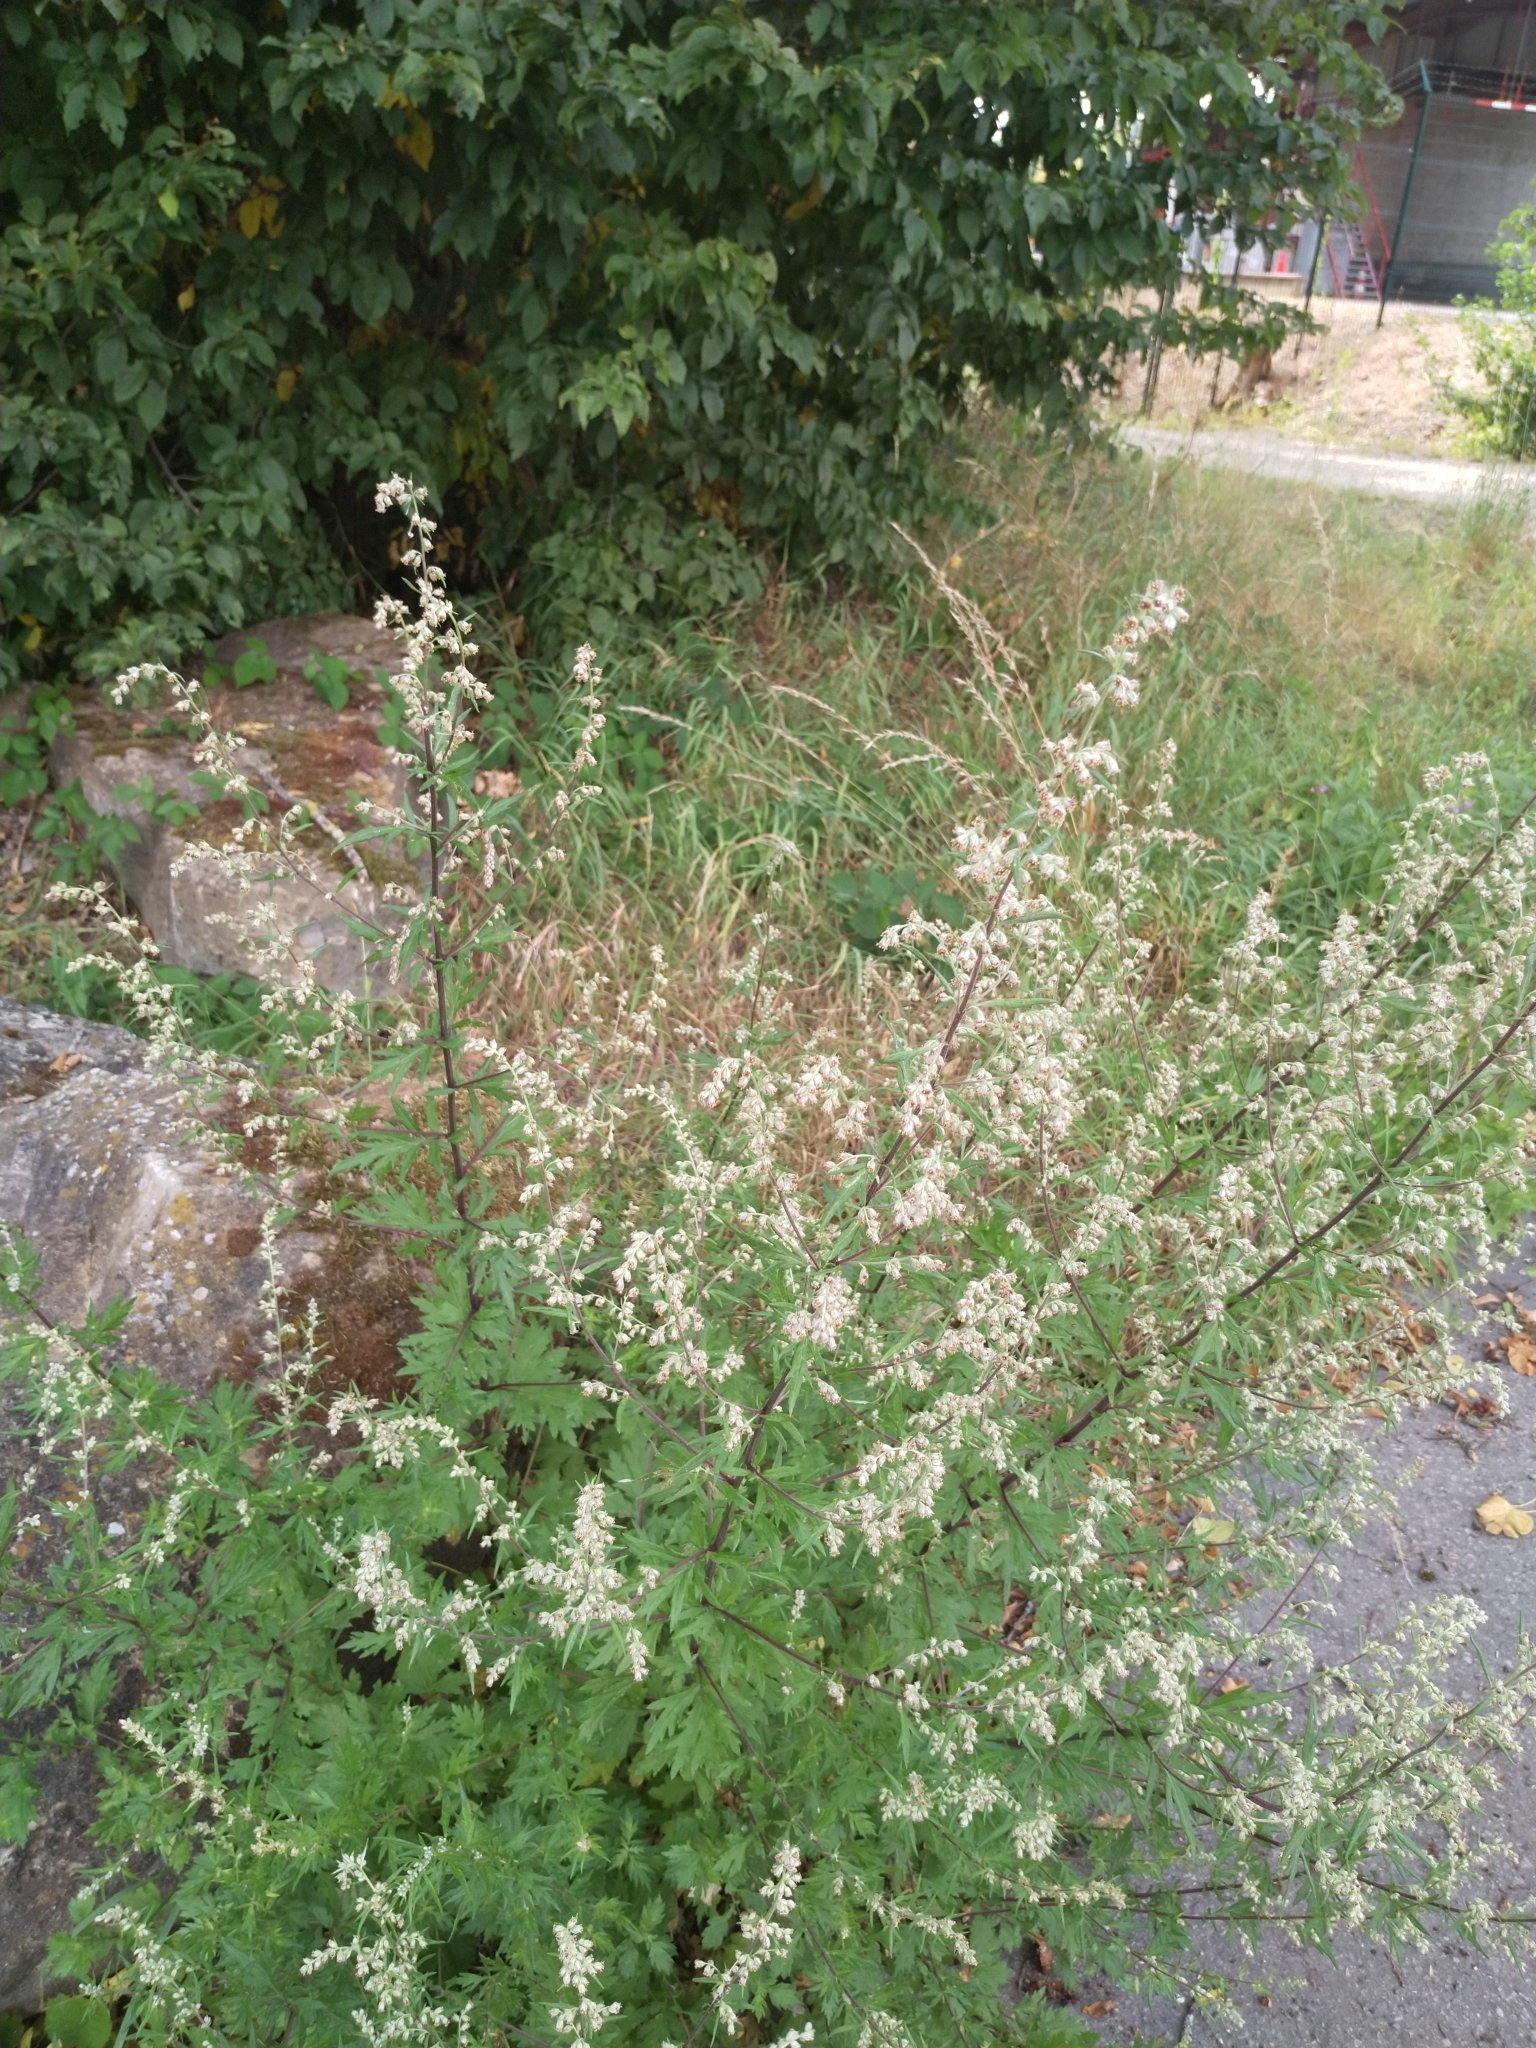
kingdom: Plantae
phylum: Tracheophyta
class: Magnoliopsida
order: Asterales
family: Asteraceae
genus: Artemisia
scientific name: Artemisia vulgaris
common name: Mugwort
